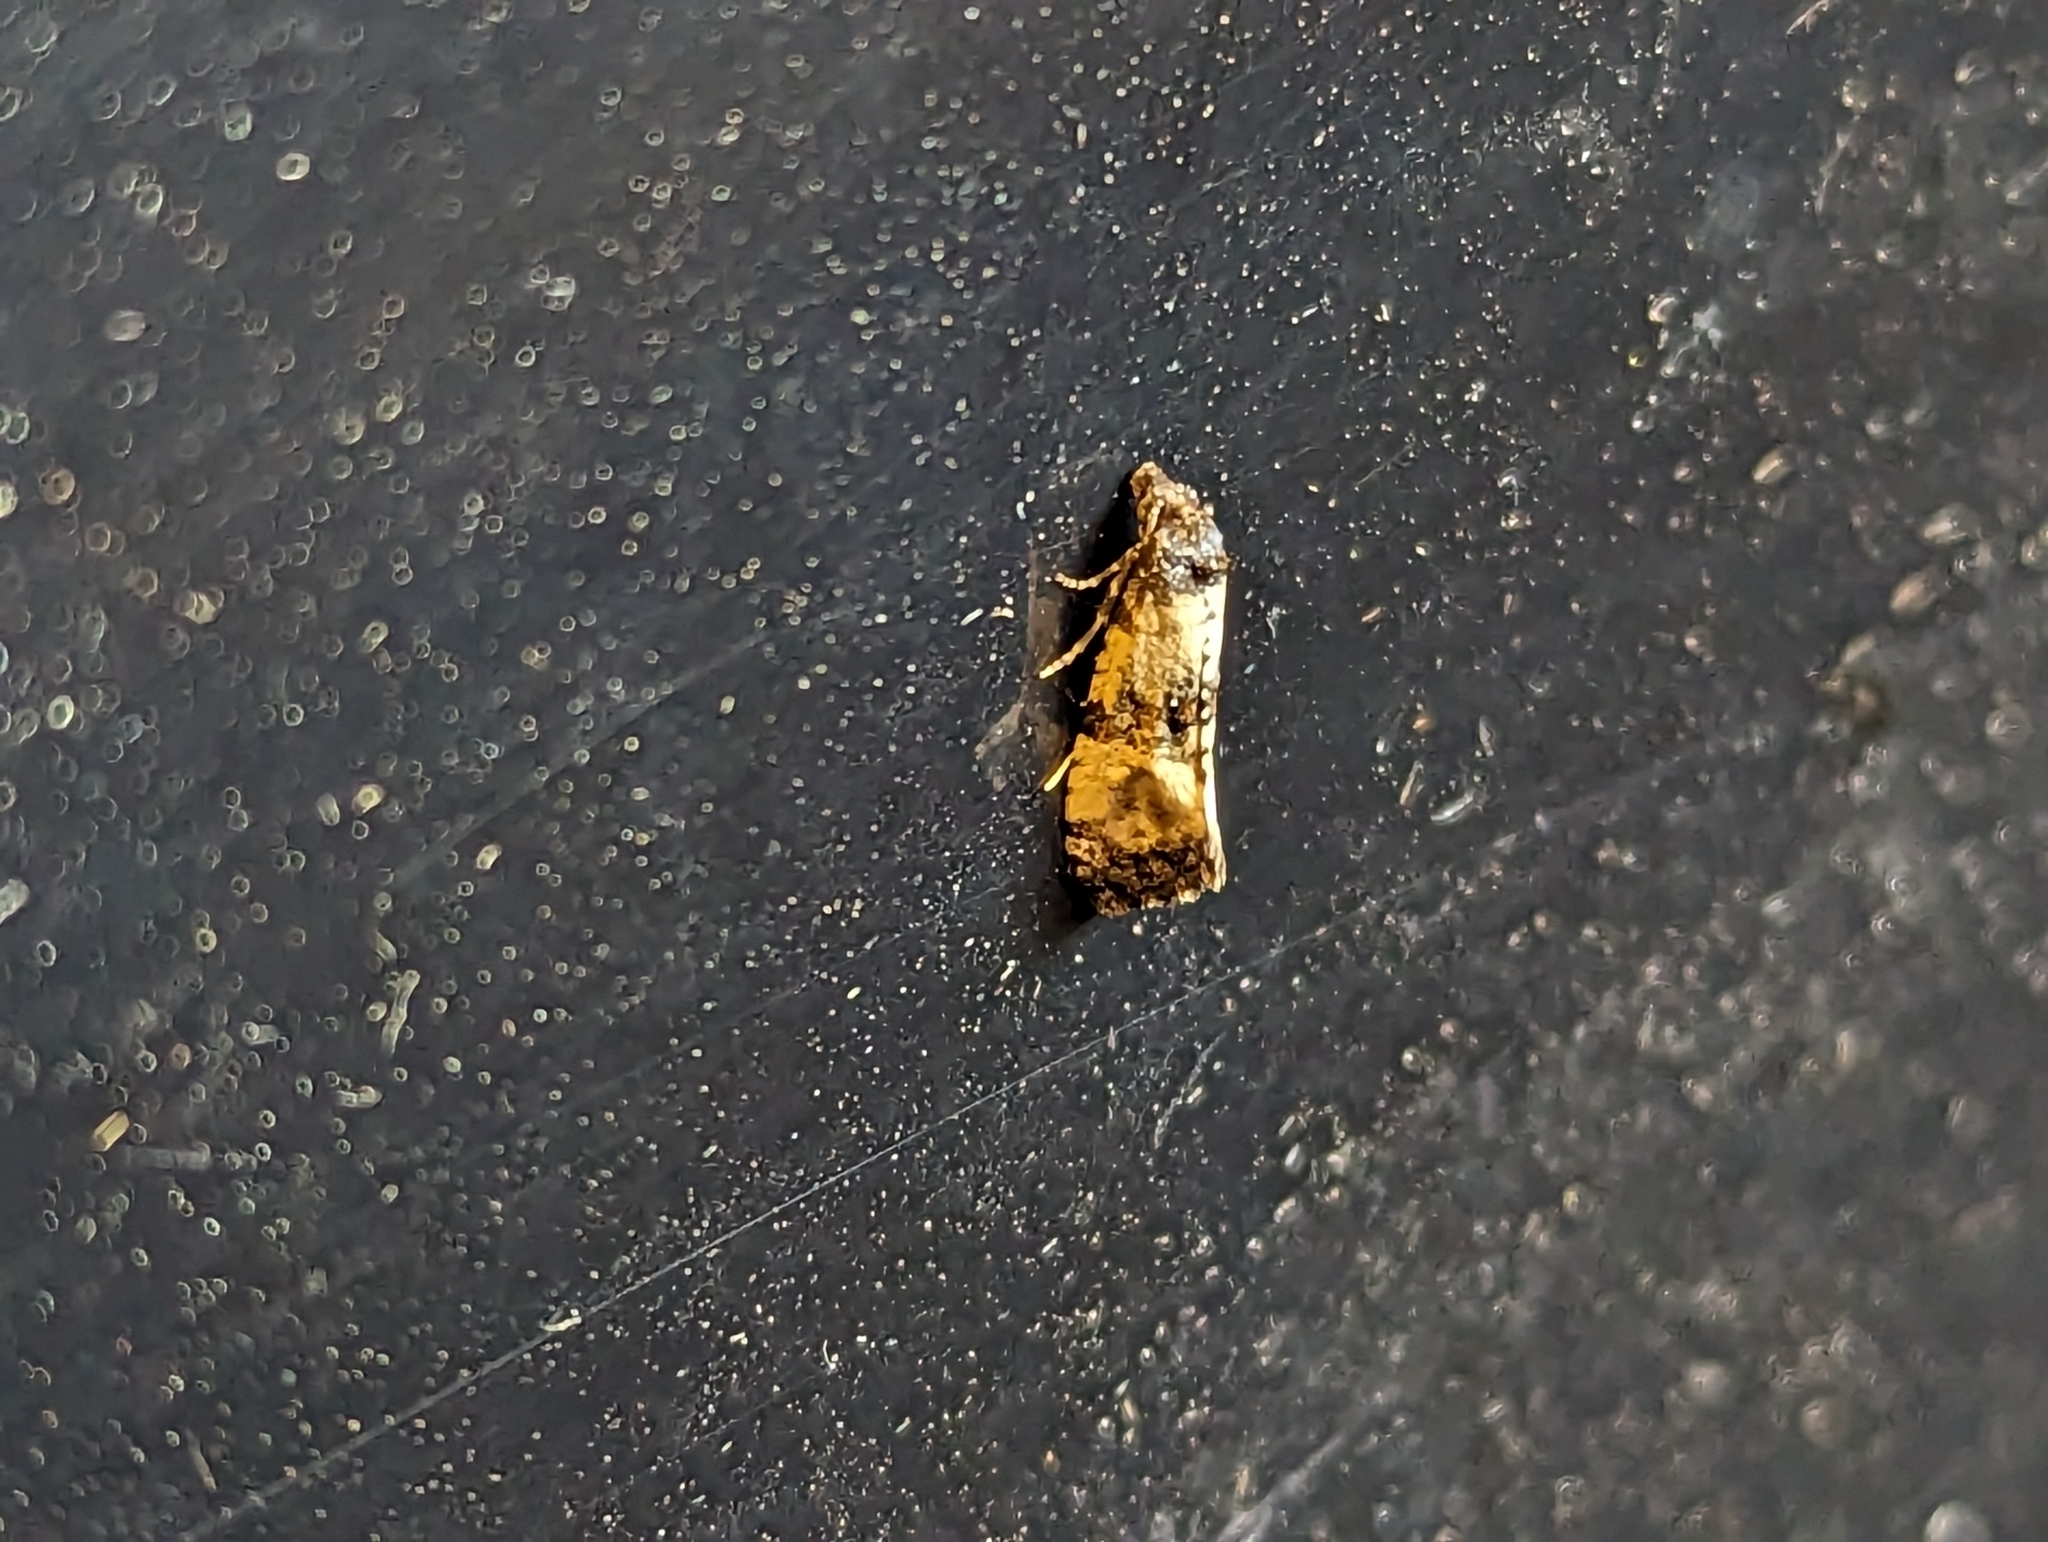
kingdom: Animalia
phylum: Arthropoda
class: Insecta
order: Lepidoptera
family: Tortricidae
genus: Cochylis
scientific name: Cochylis atricapitana
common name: Tortricid moth
